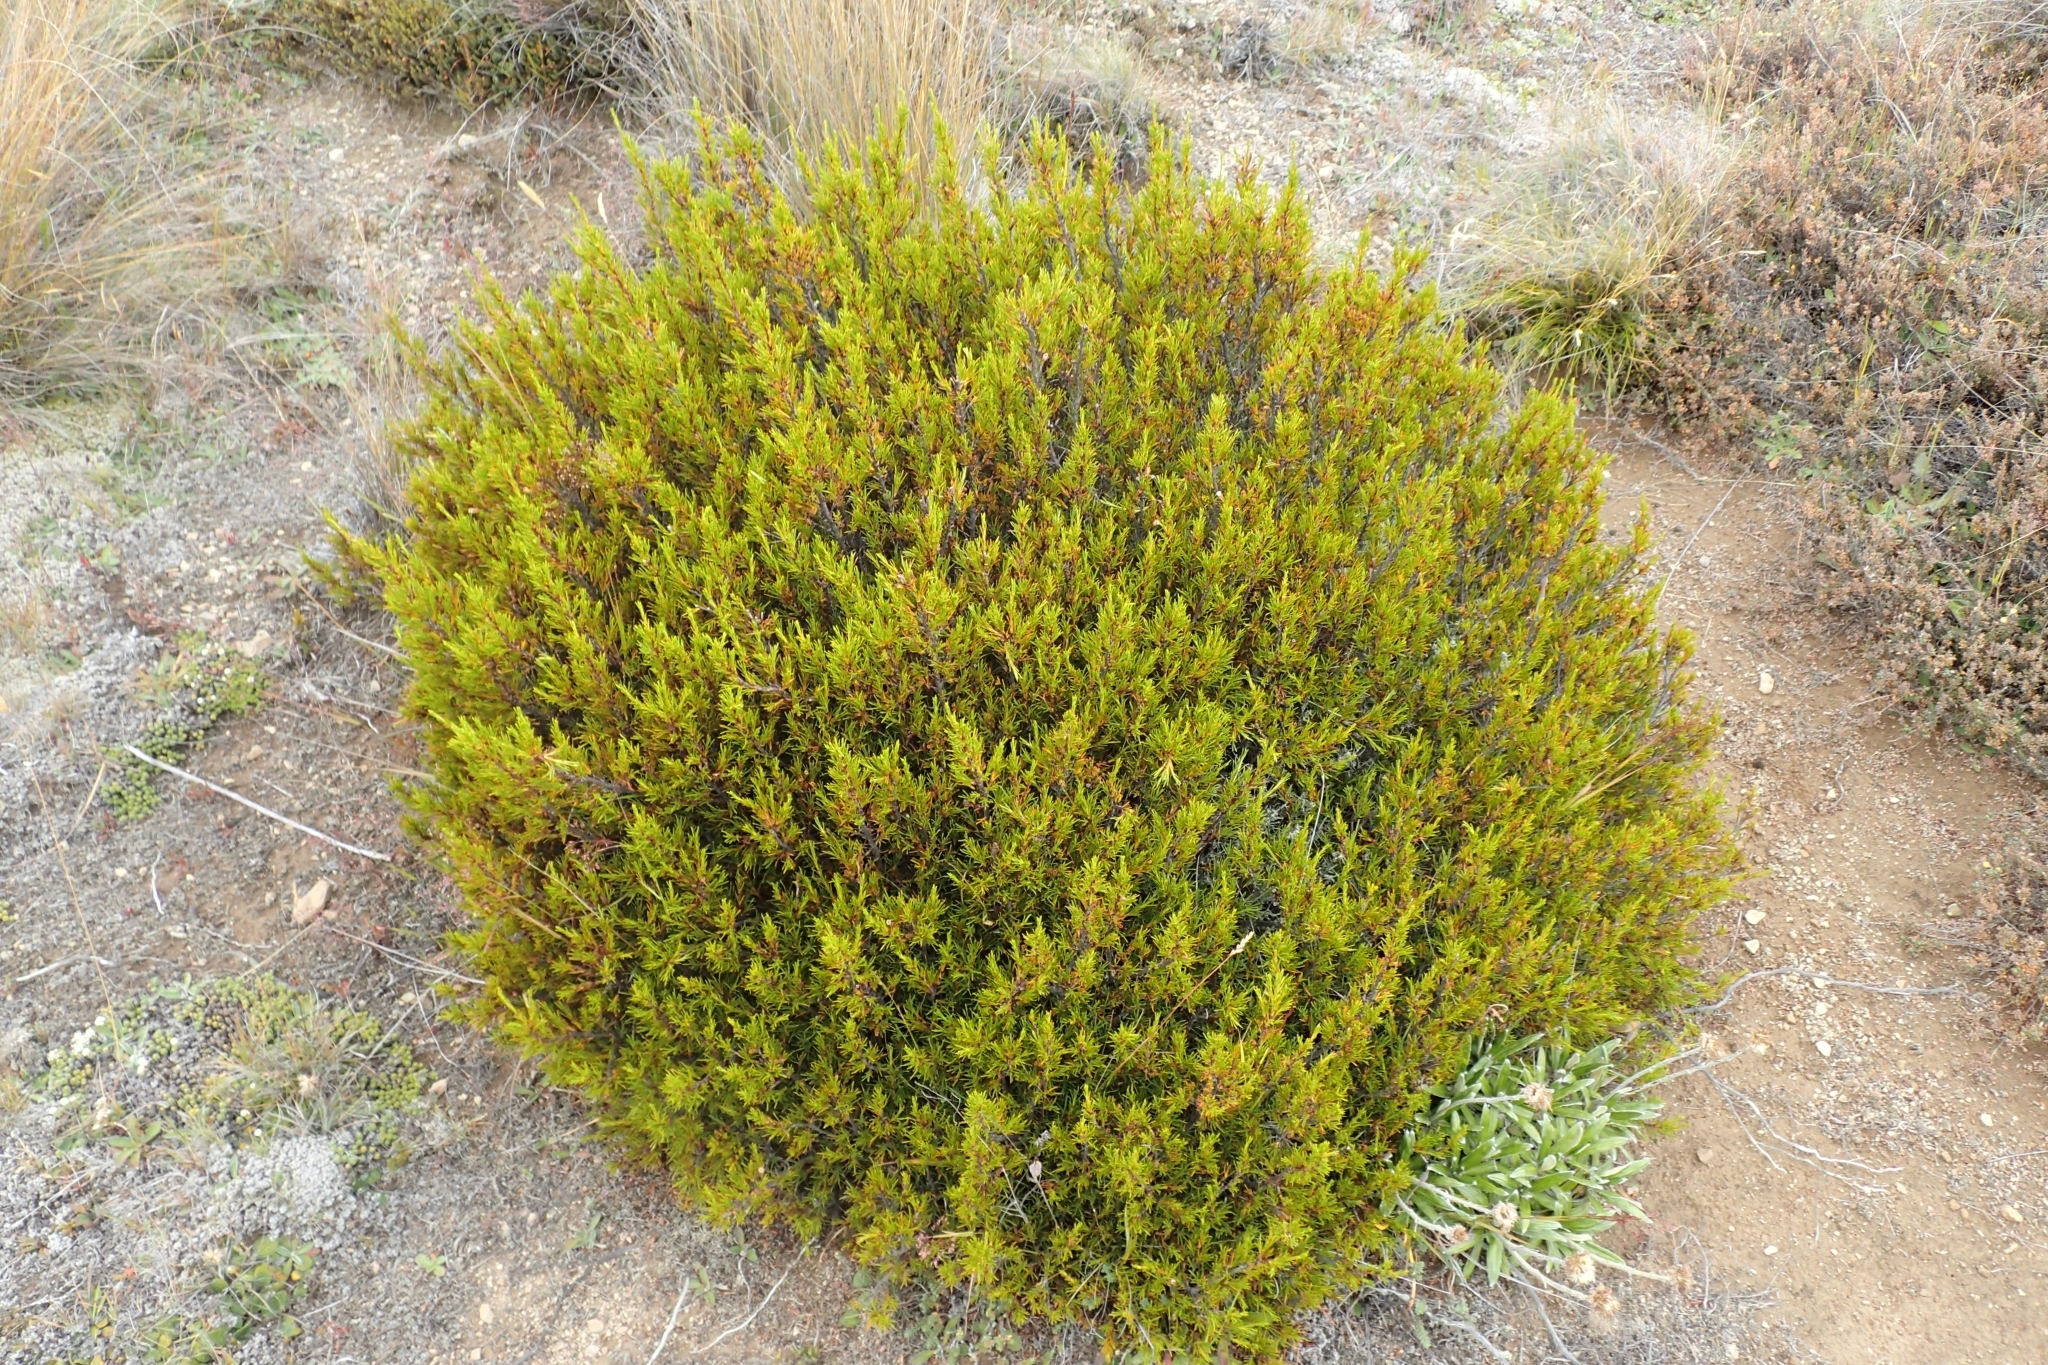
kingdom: Plantae
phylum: Tracheophyta
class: Magnoliopsida
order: Ericales
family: Ericaceae
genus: Dracophyllum
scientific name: Dracophyllum rosmarinifolium
